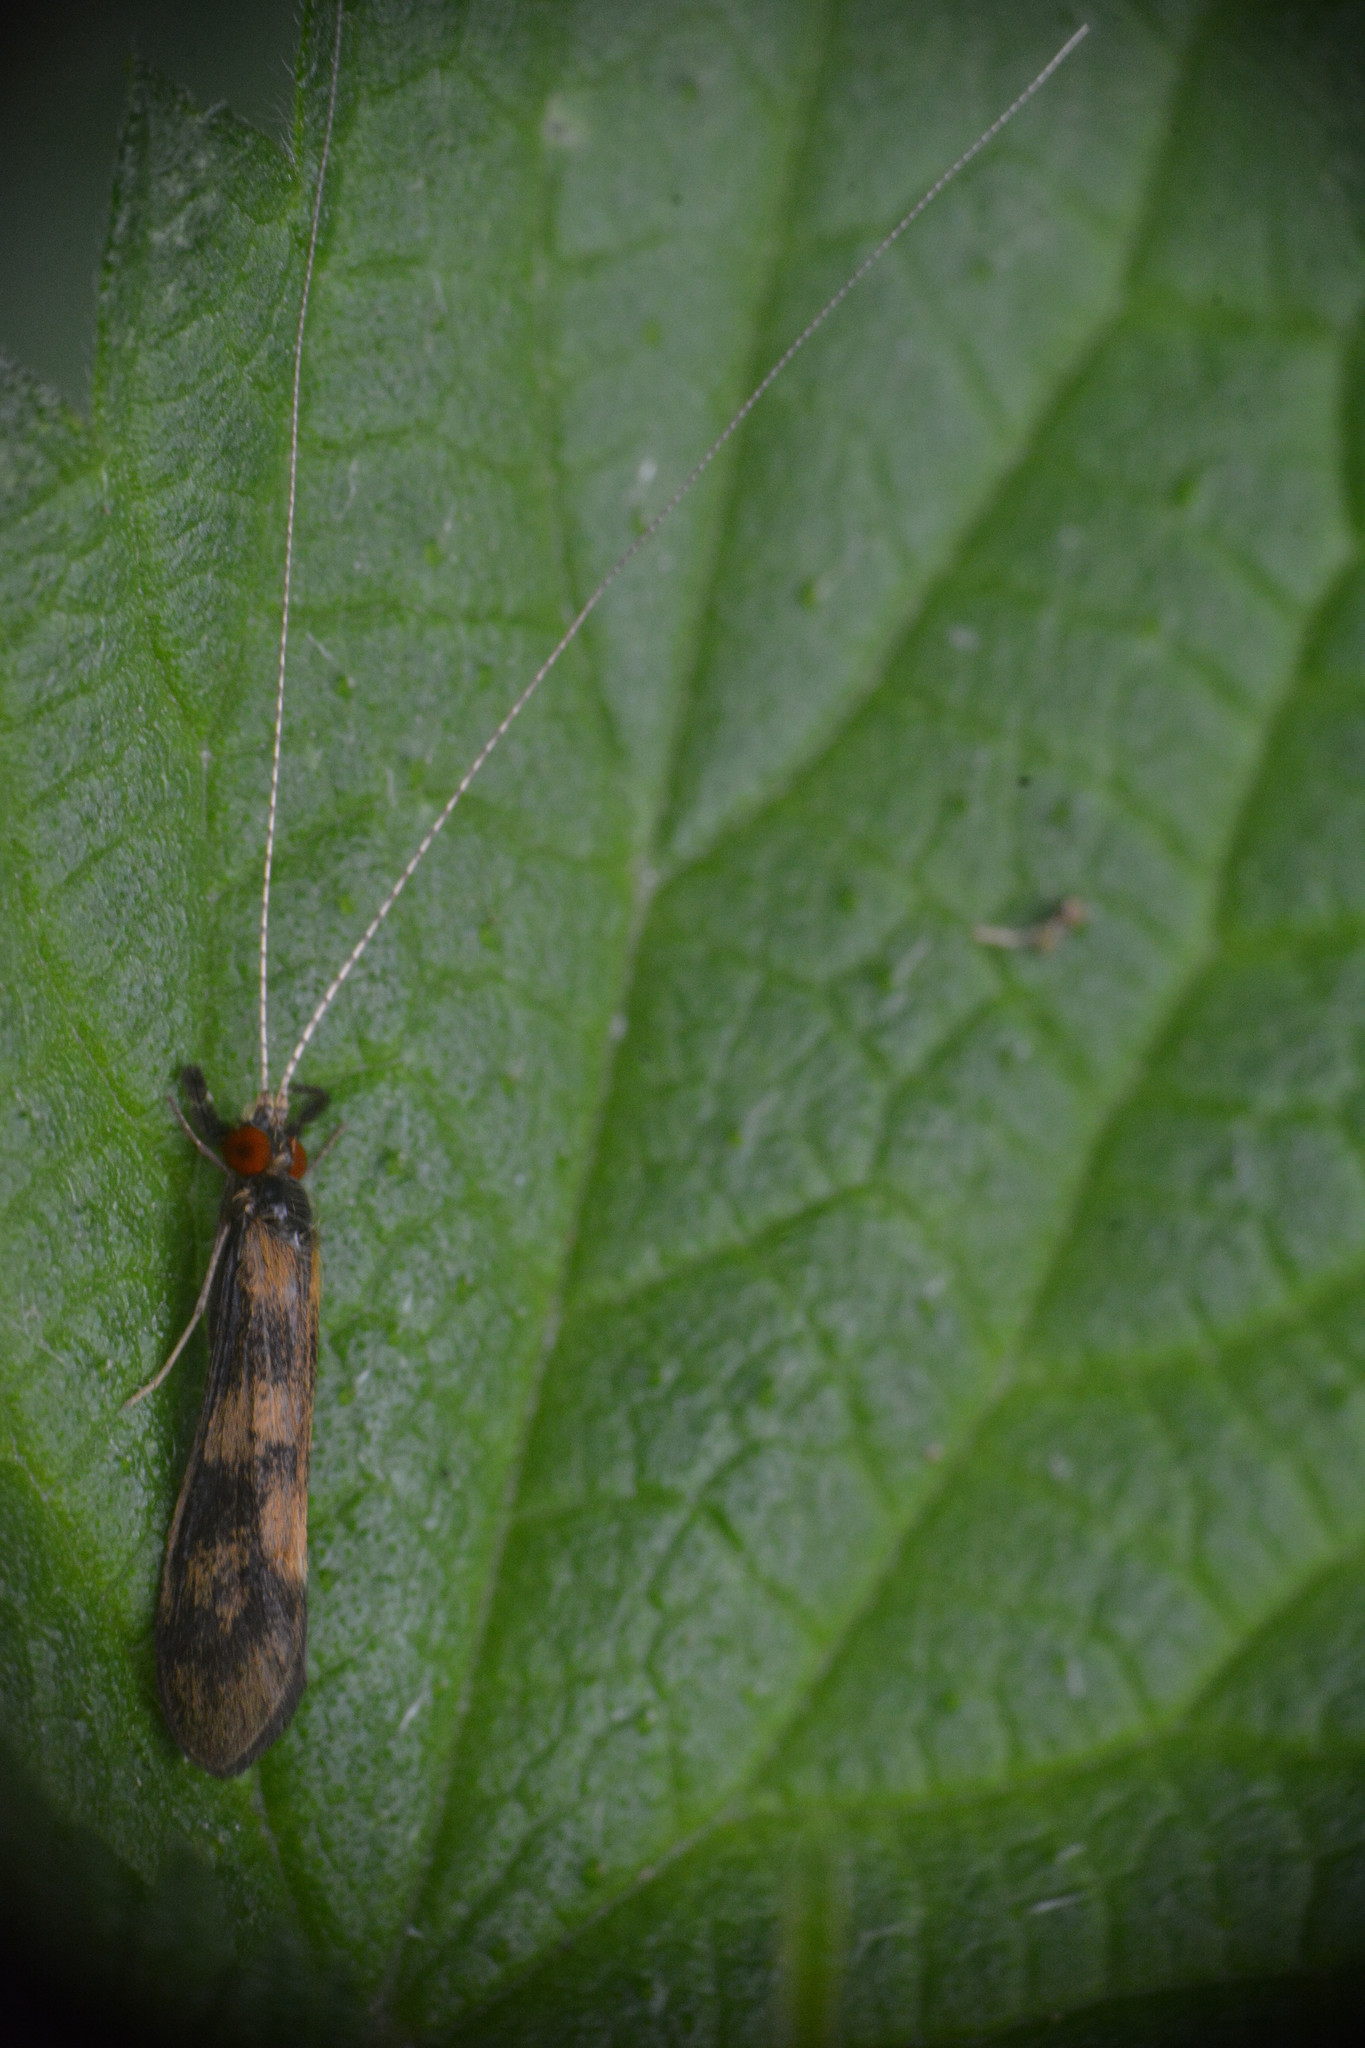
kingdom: Animalia
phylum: Arthropoda
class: Insecta
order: Trichoptera
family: Leptoceridae
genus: Mystacides
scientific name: Mystacides longicornis
